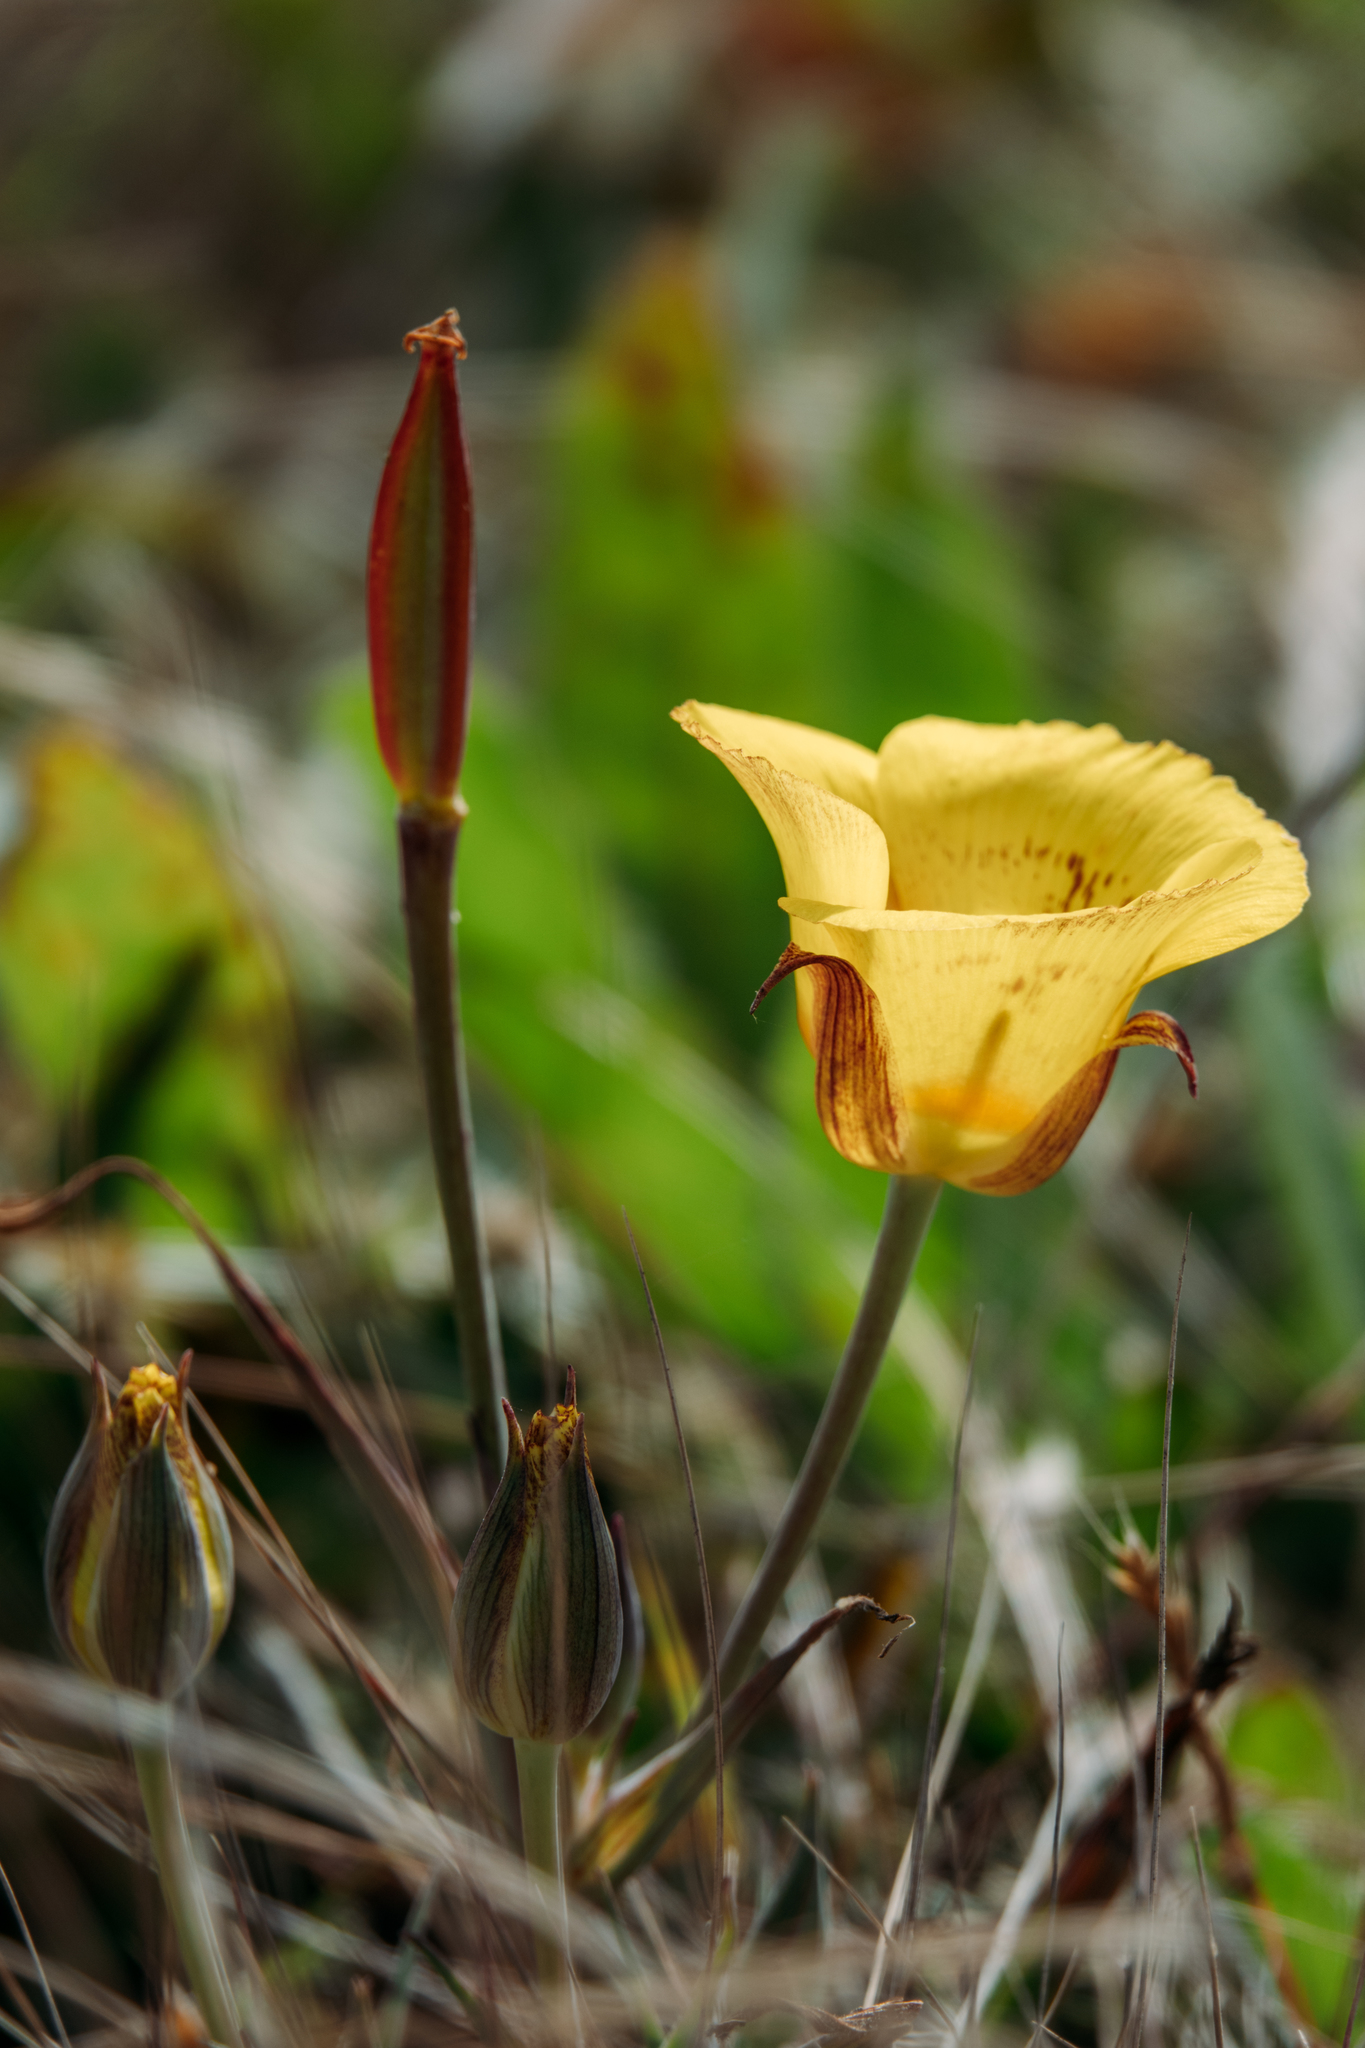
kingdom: Plantae
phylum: Tracheophyta
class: Liliopsida
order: Liliales
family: Liliaceae
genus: Calochortus
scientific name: Calochortus luteus
